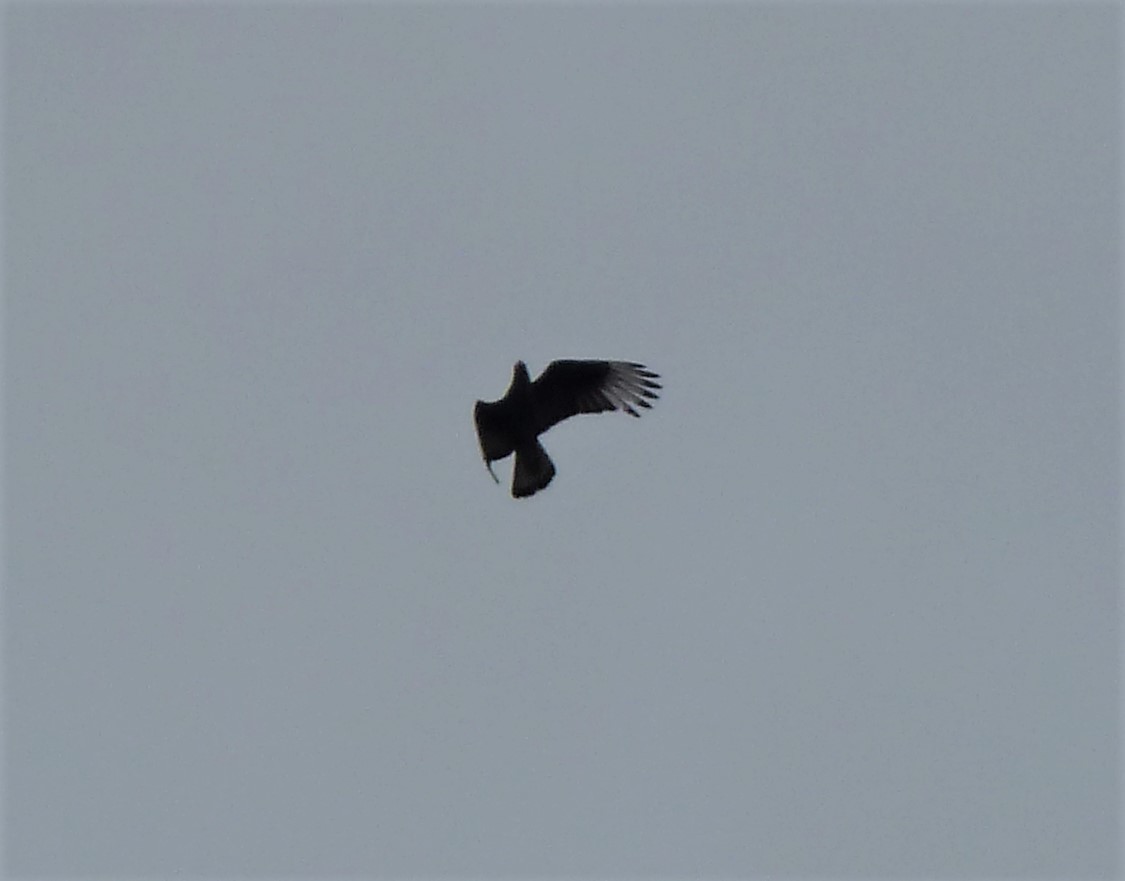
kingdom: Animalia
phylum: Chordata
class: Aves
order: Falconiformes
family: Falconidae
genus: Caracara
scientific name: Caracara plancus
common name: Southern caracara
